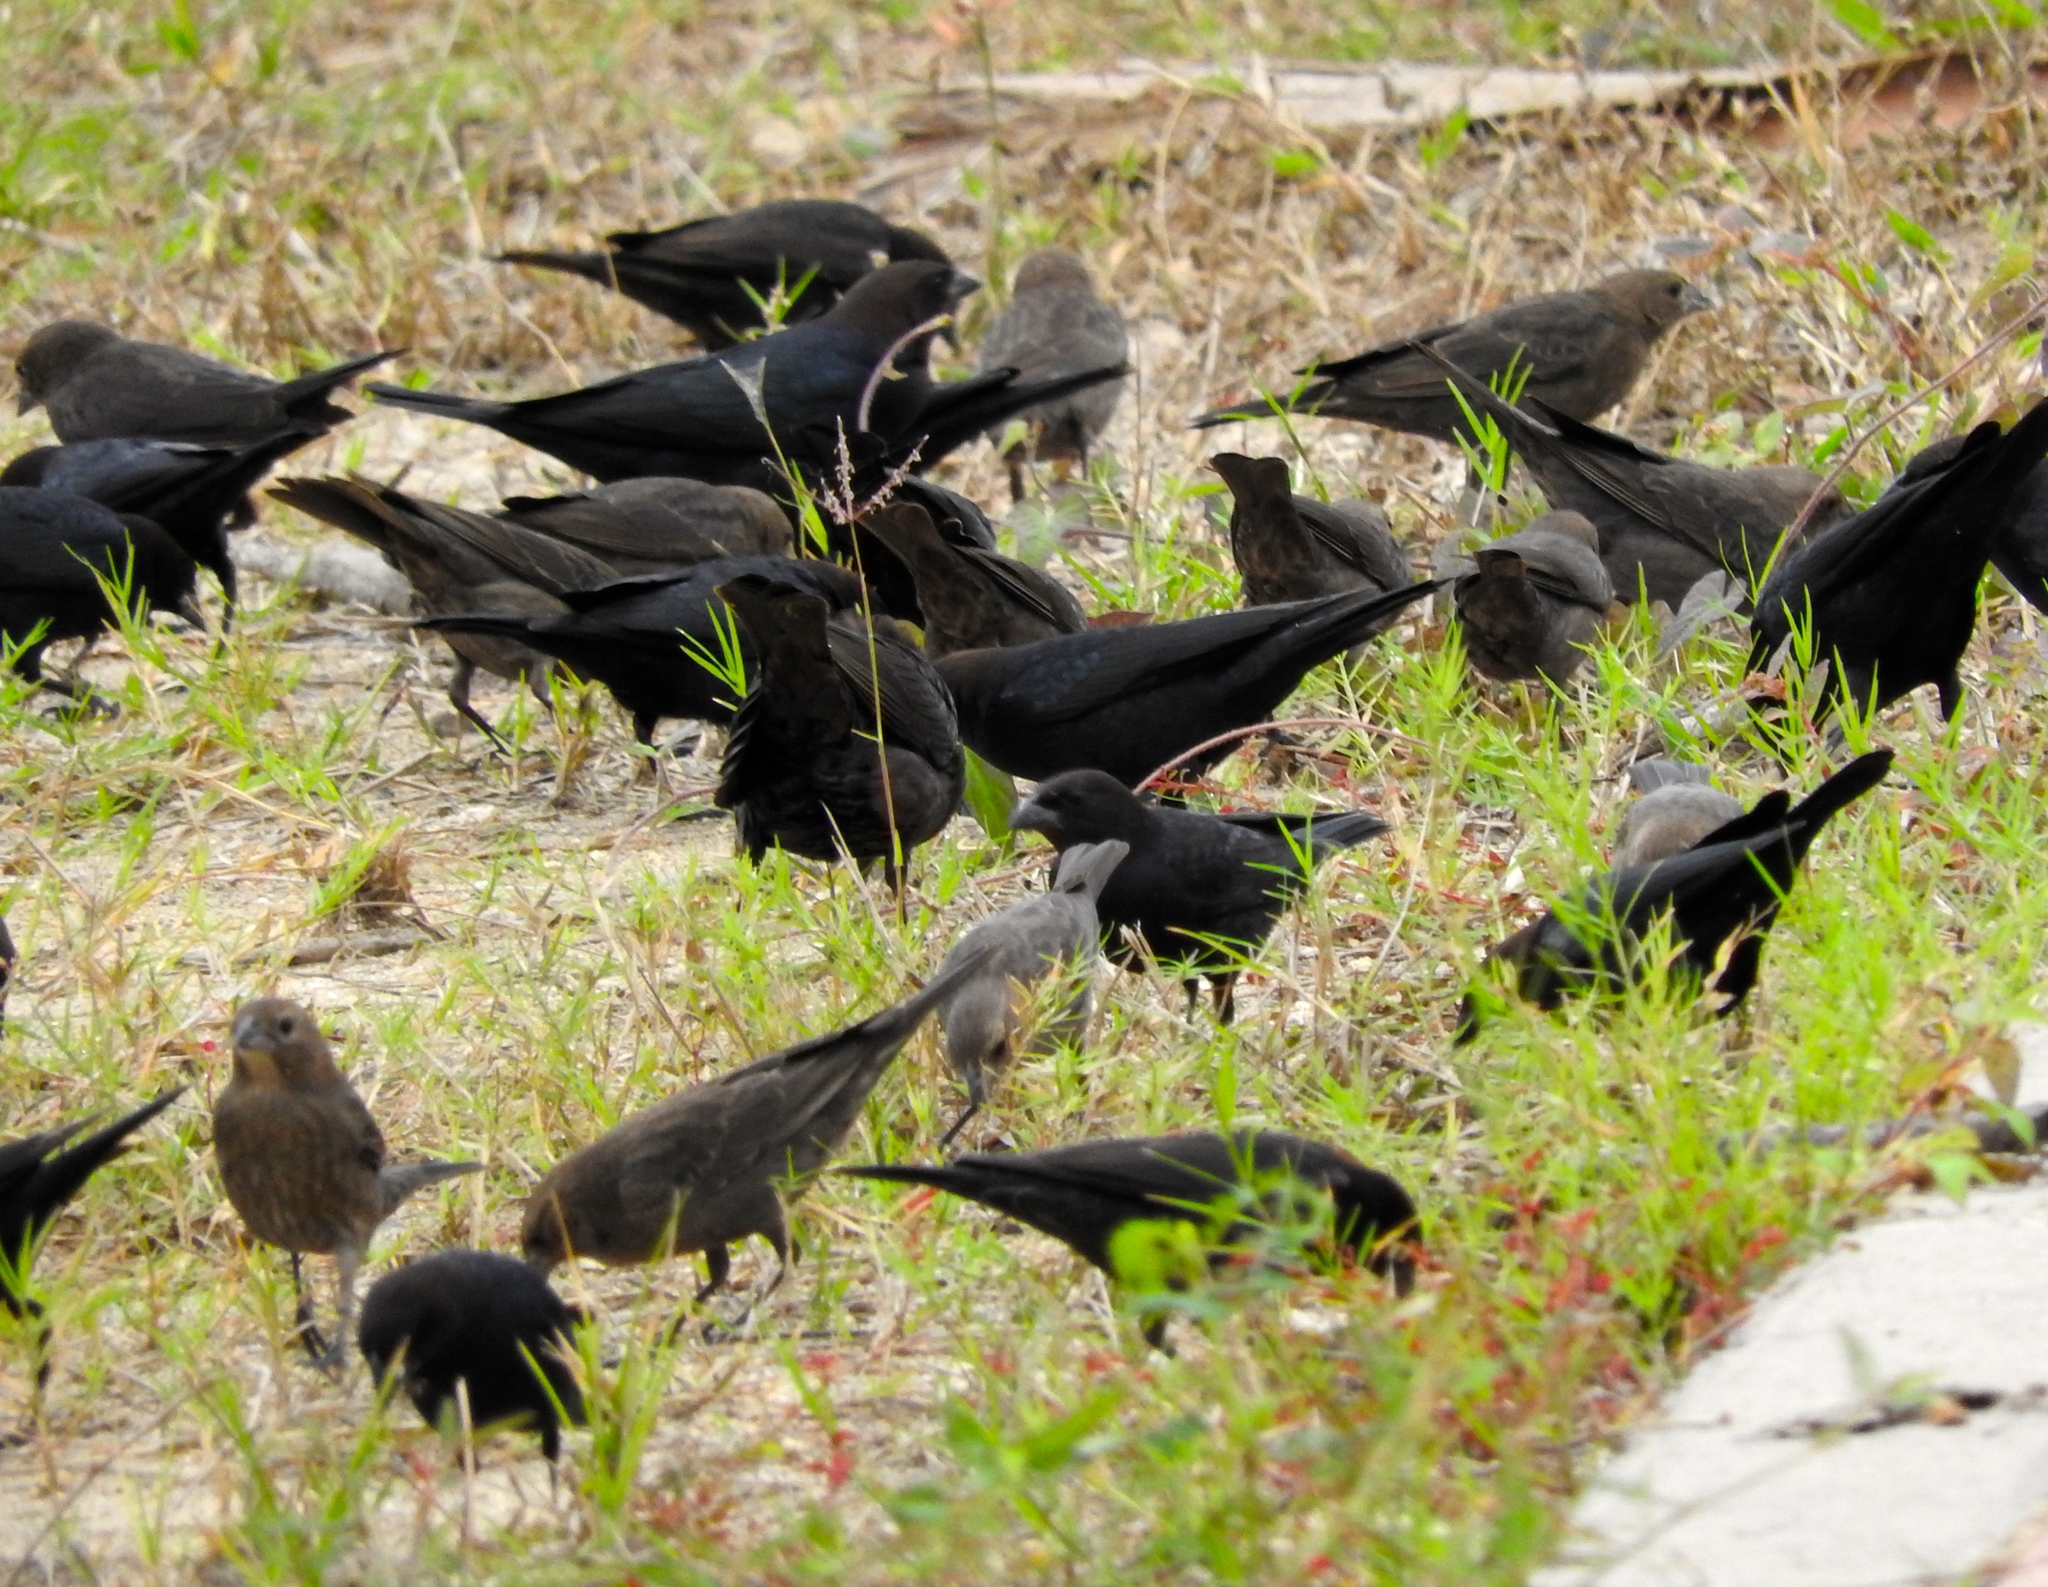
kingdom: Animalia
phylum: Chordata
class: Aves
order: Passeriformes
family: Icteridae
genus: Molothrus
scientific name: Molothrus ater
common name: Brown-headed cowbird
